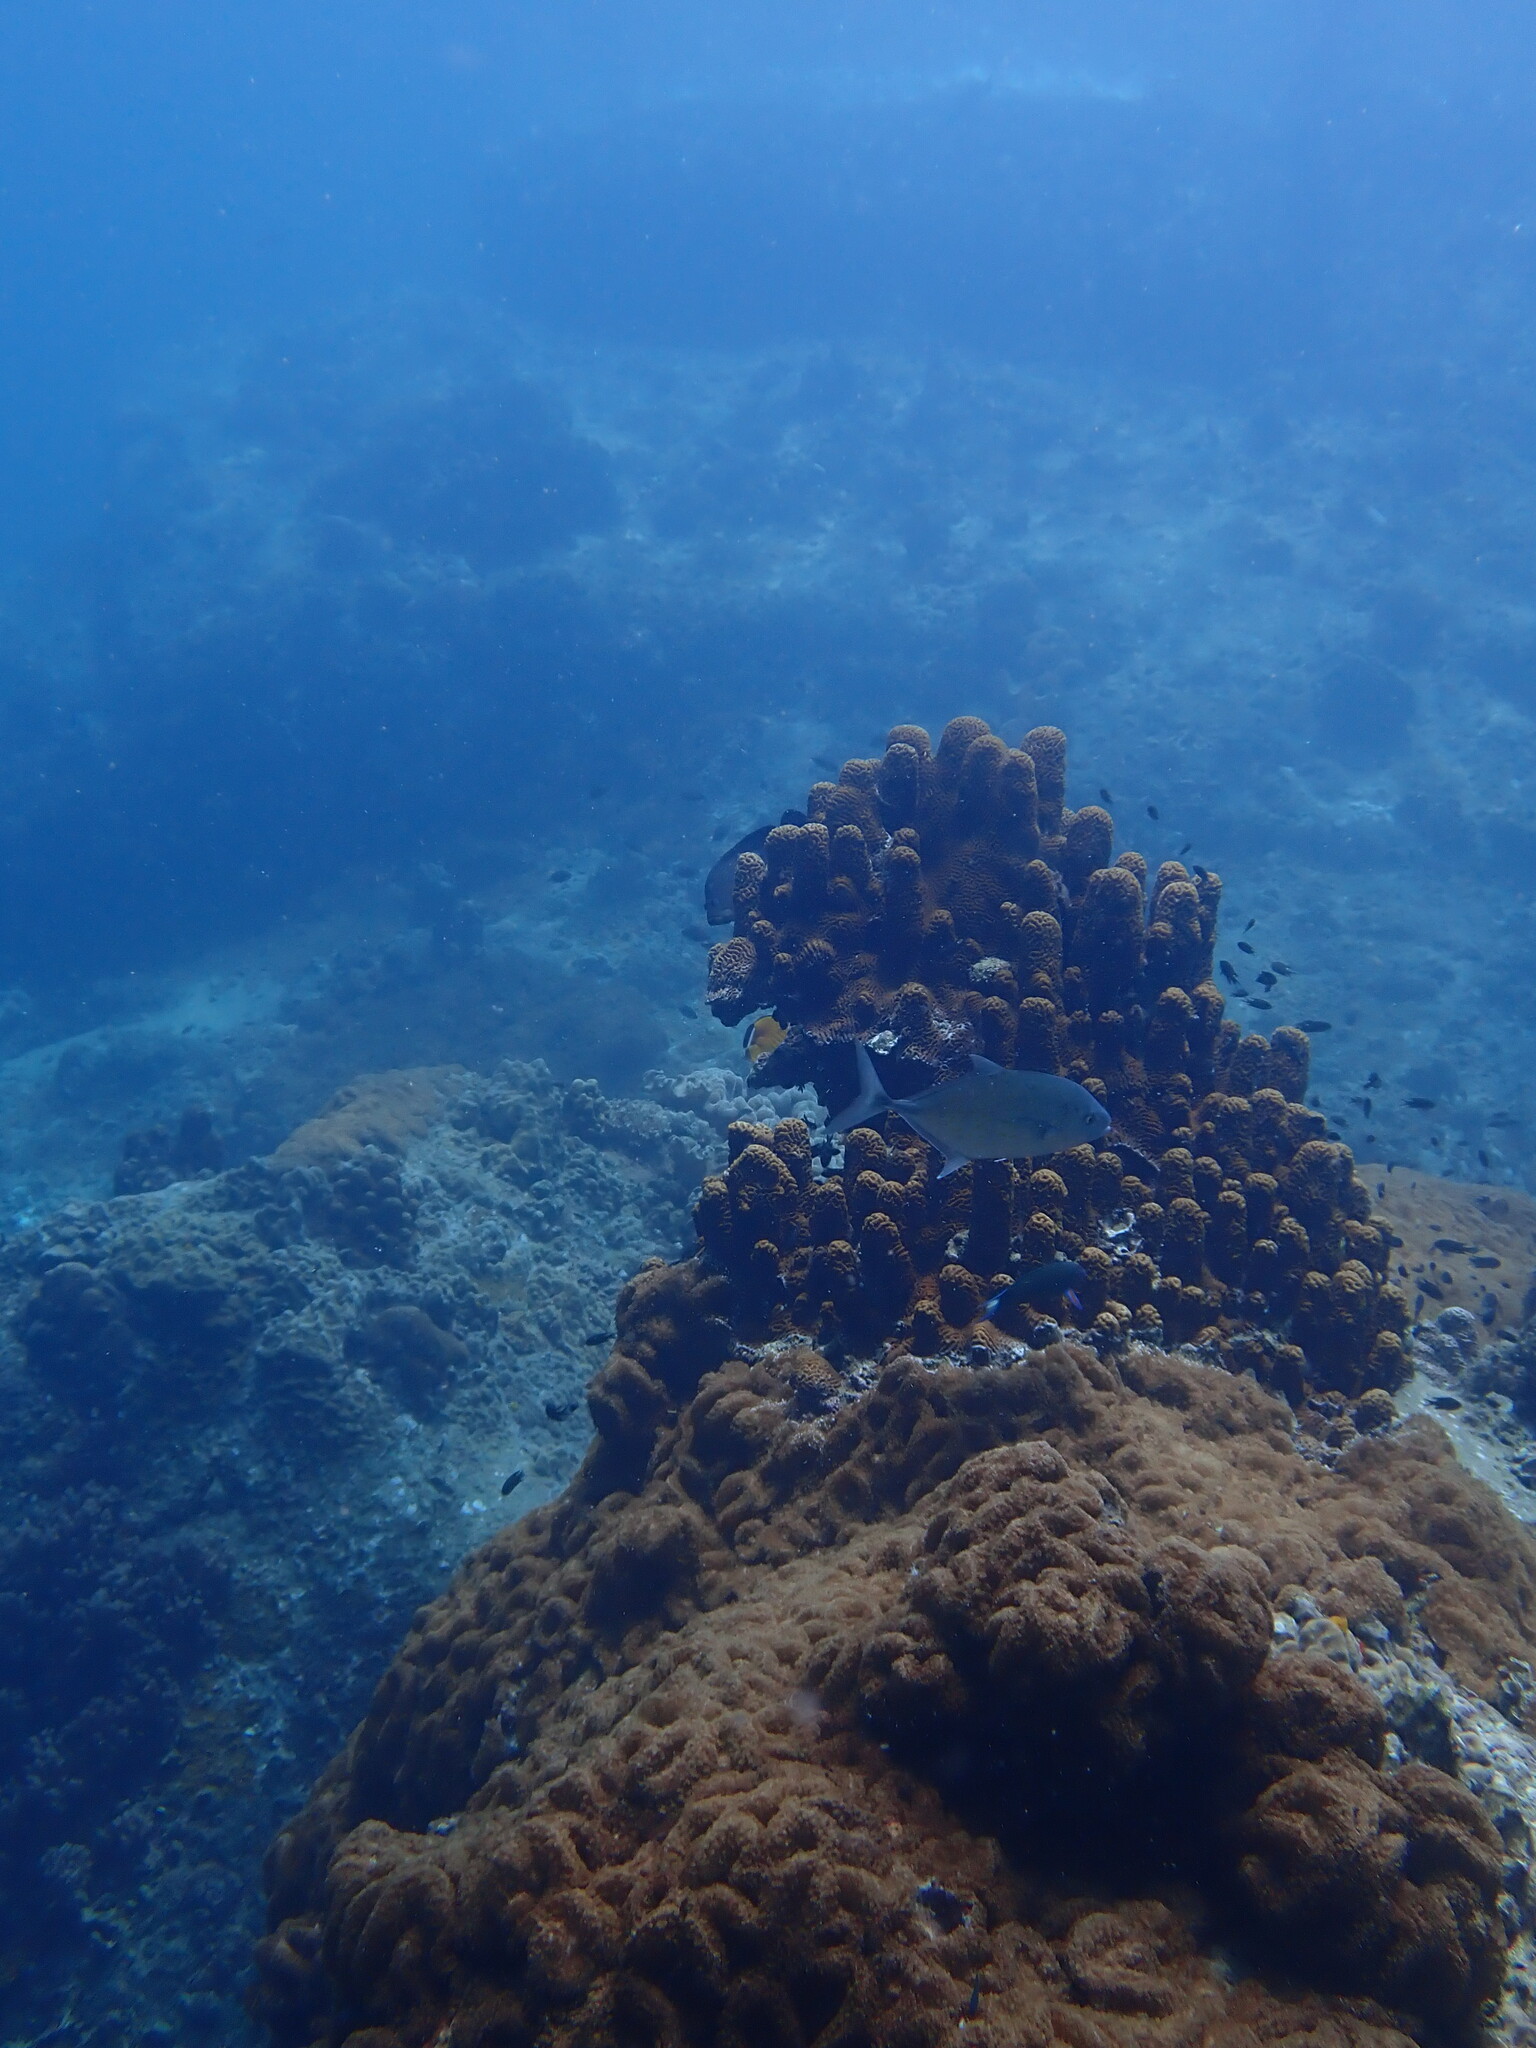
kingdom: Animalia
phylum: Cnidaria
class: Anthozoa
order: Scleractinia
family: Merulinidae
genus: Merulina
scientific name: Merulina cylindrica
